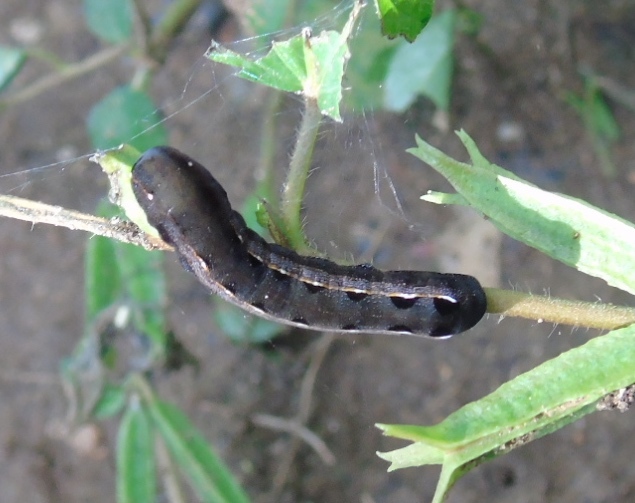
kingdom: Animalia
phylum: Arthropoda
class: Insecta
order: Lepidoptera
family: Noctuidae
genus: Spodoptera
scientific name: Spodoptera
